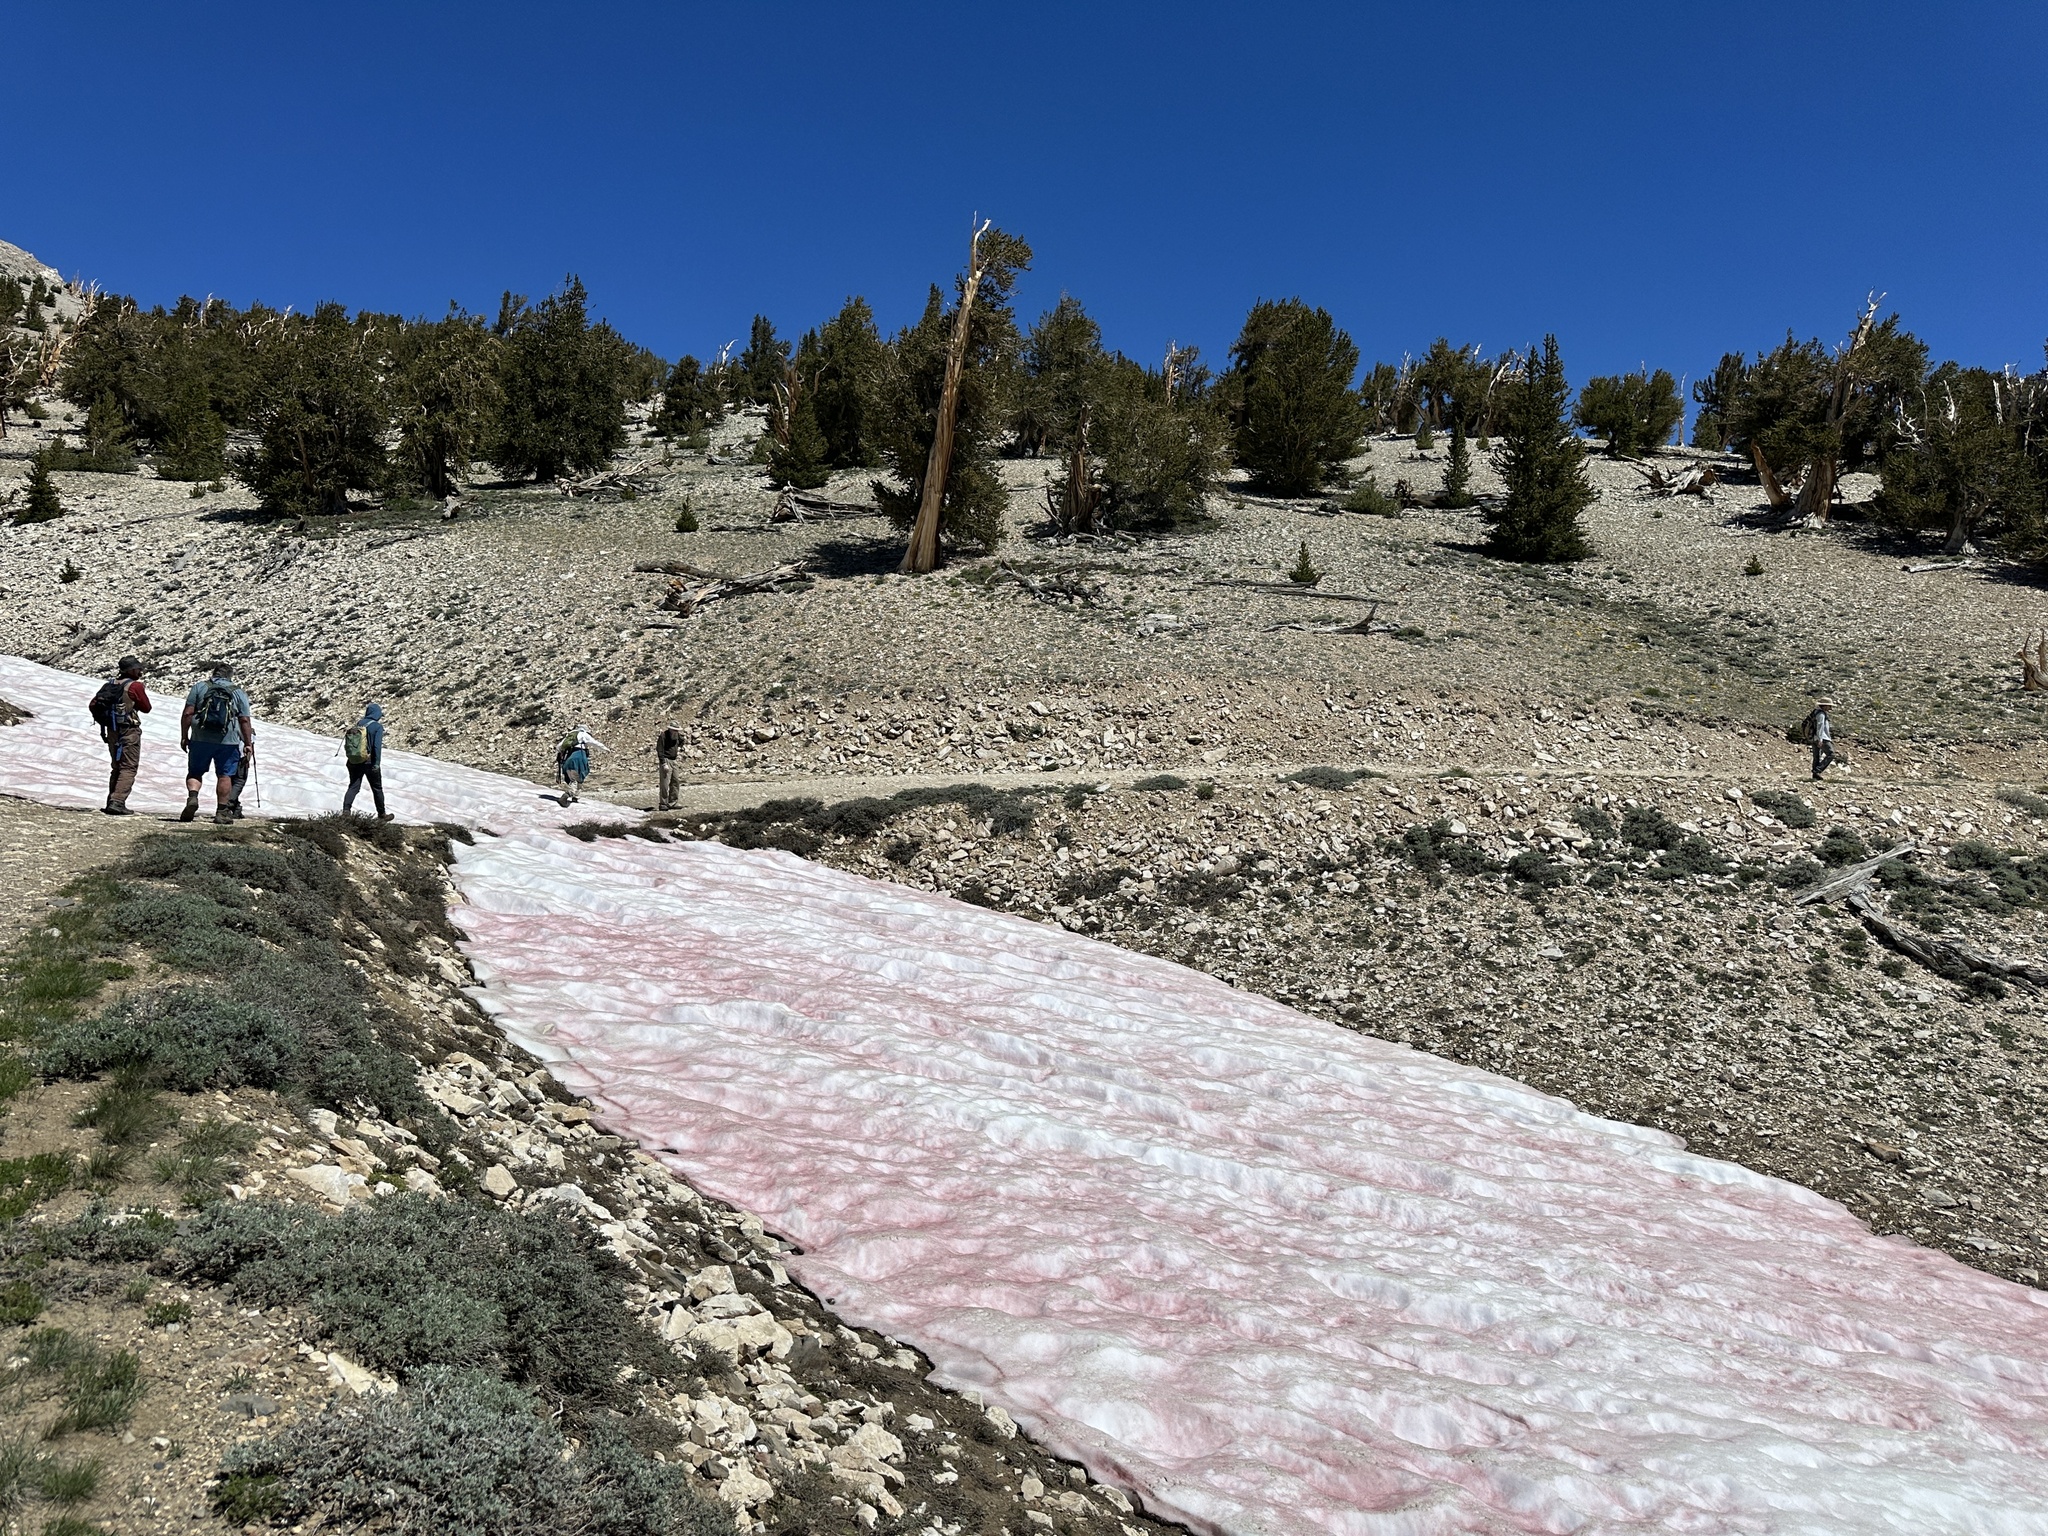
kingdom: Plantae
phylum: Chlorophyta
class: Chlorophyceae
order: Volvocales
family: Chlamydomonadaceae
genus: Chlamydomonas
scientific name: Chlamydomonas nivalis
